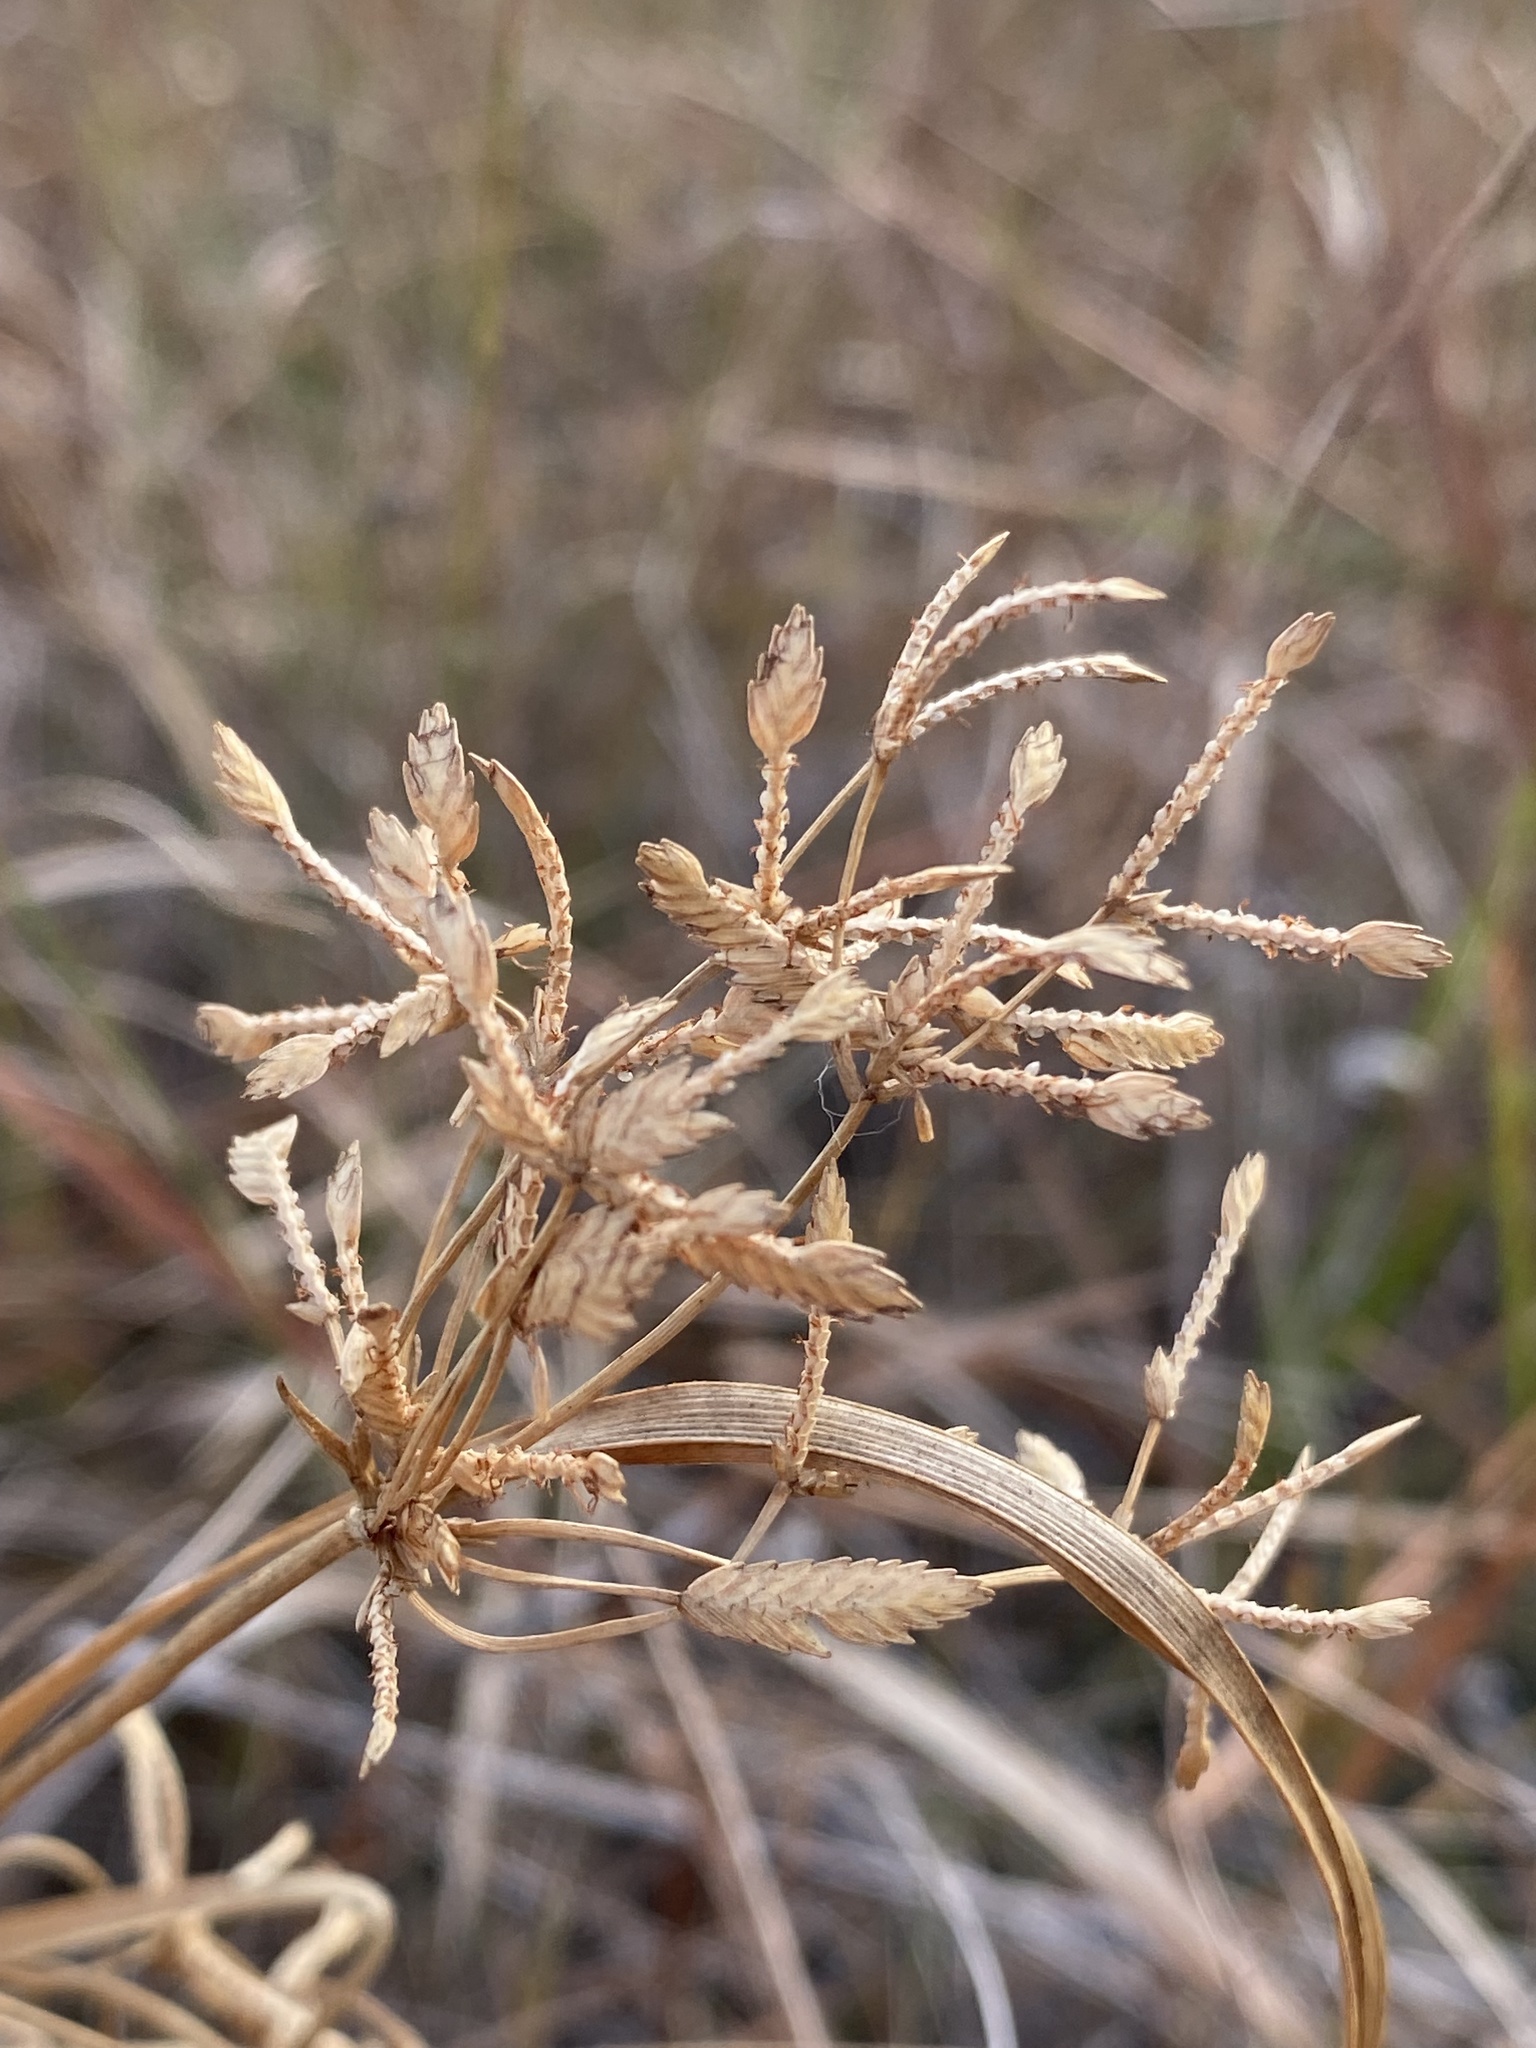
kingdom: Plantae
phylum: Tracheophyta
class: Liliopsida
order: Poales
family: Cyperaceae
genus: Cyperus
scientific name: Cyperus lecontei
